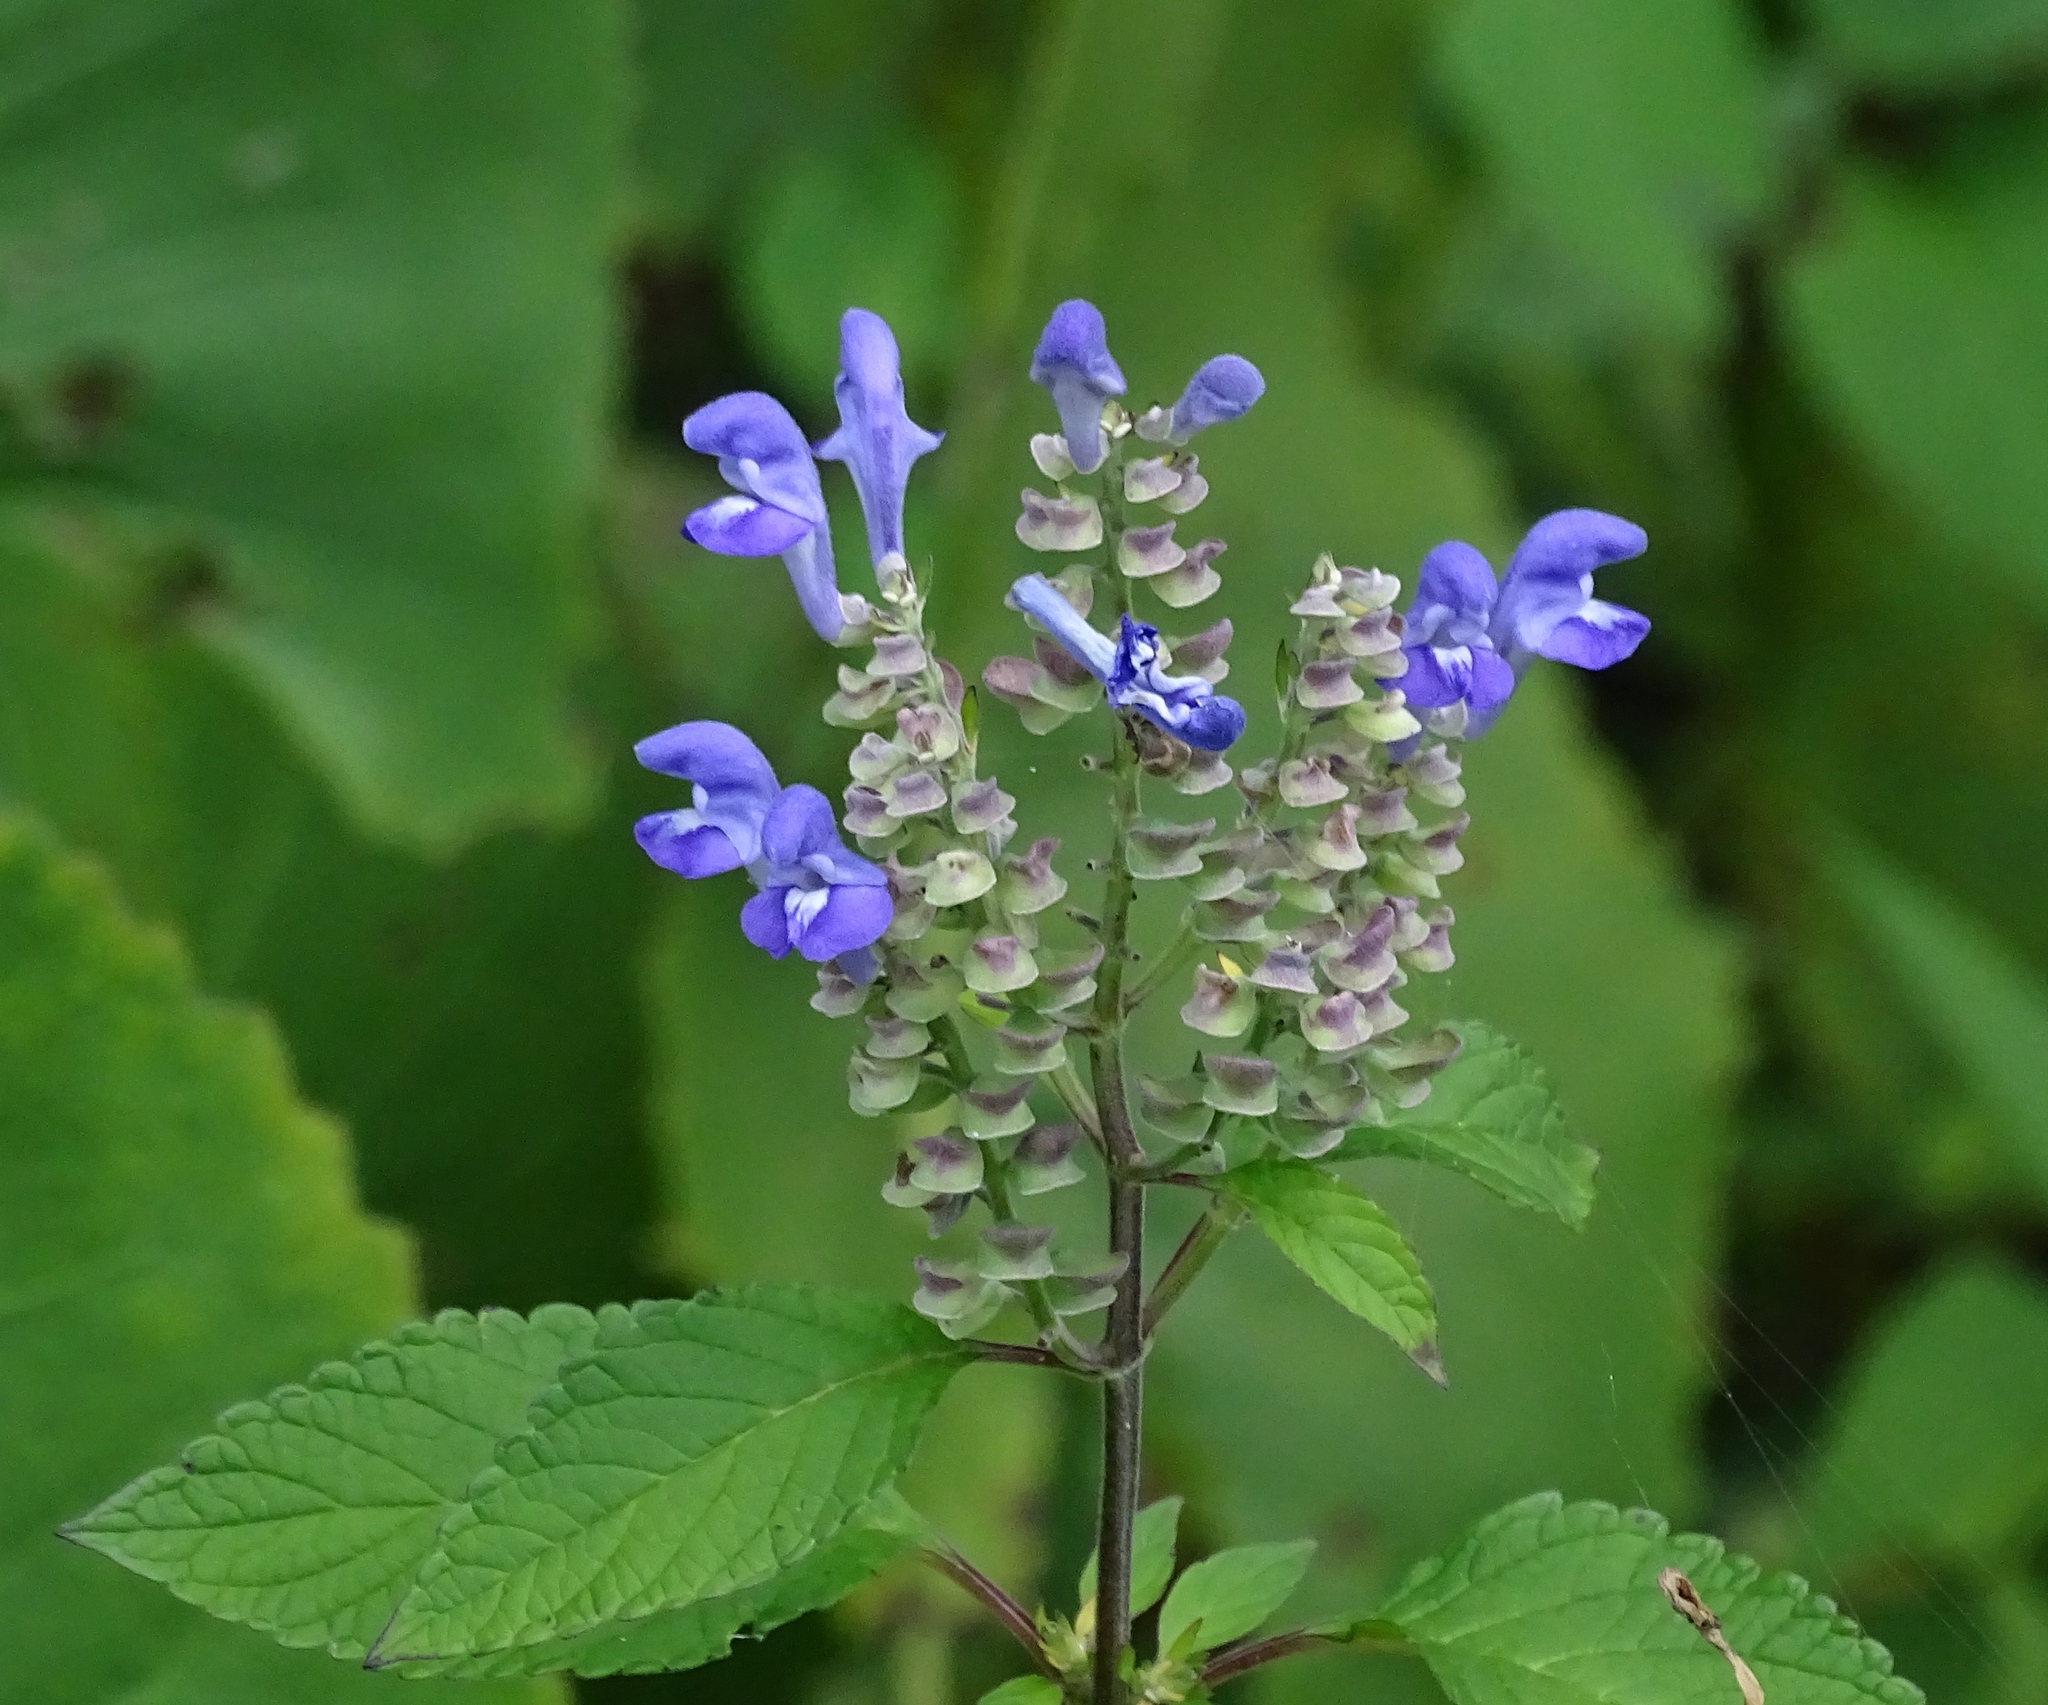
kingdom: Plantae
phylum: Tracheophyta
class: Magnoliopsida
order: Lamiales
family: Lamiaceae
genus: Scutellaria
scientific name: Scutellaria incana
